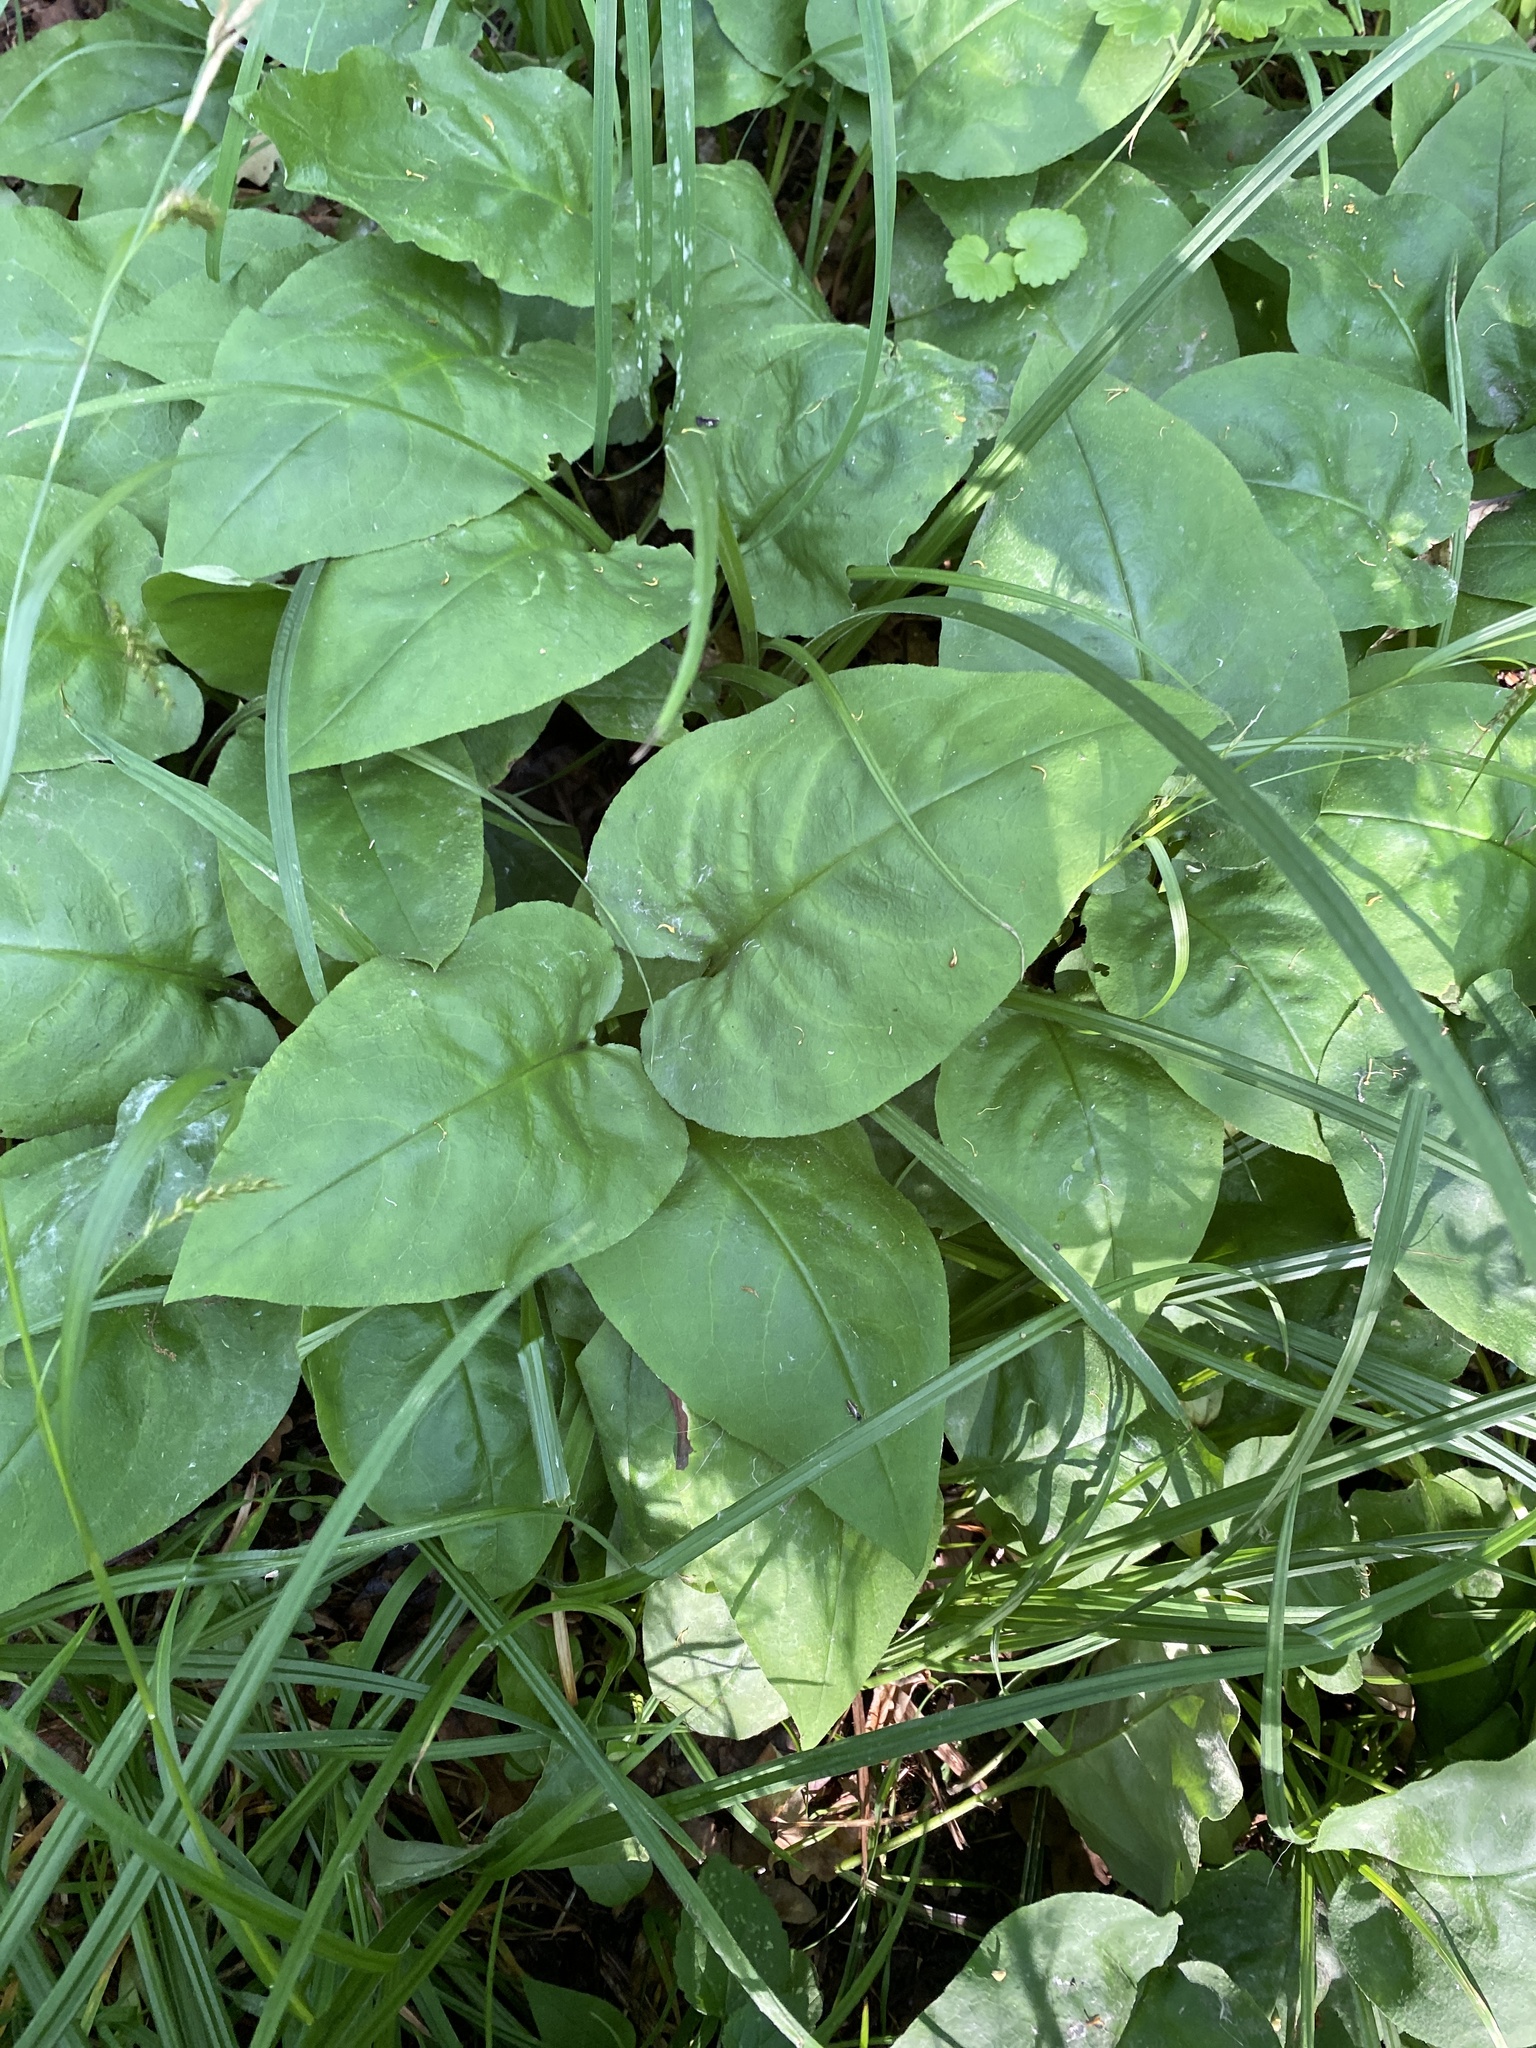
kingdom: Plantae
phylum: Tracheophyta
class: Magnoliopsida
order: Boraginales
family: Boraginaceae
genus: Pulmonaria
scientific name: Pulmonaria obscura
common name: Suffolk lungwort
